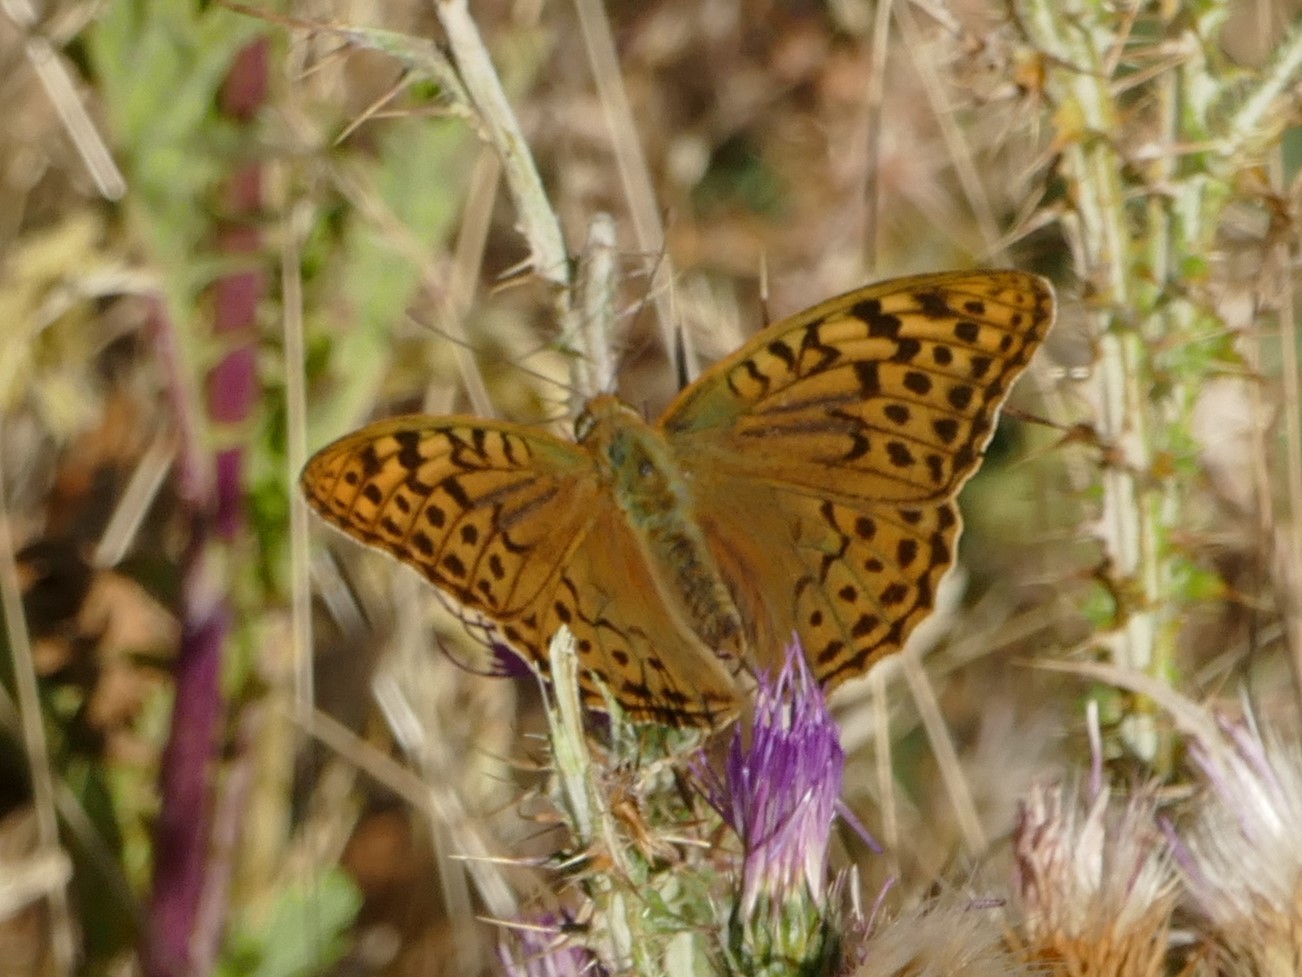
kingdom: Animalia
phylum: Arthropoda
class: Insecta
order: Lepidoptera
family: Nymphalidae
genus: Damora
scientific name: Damora pandora
